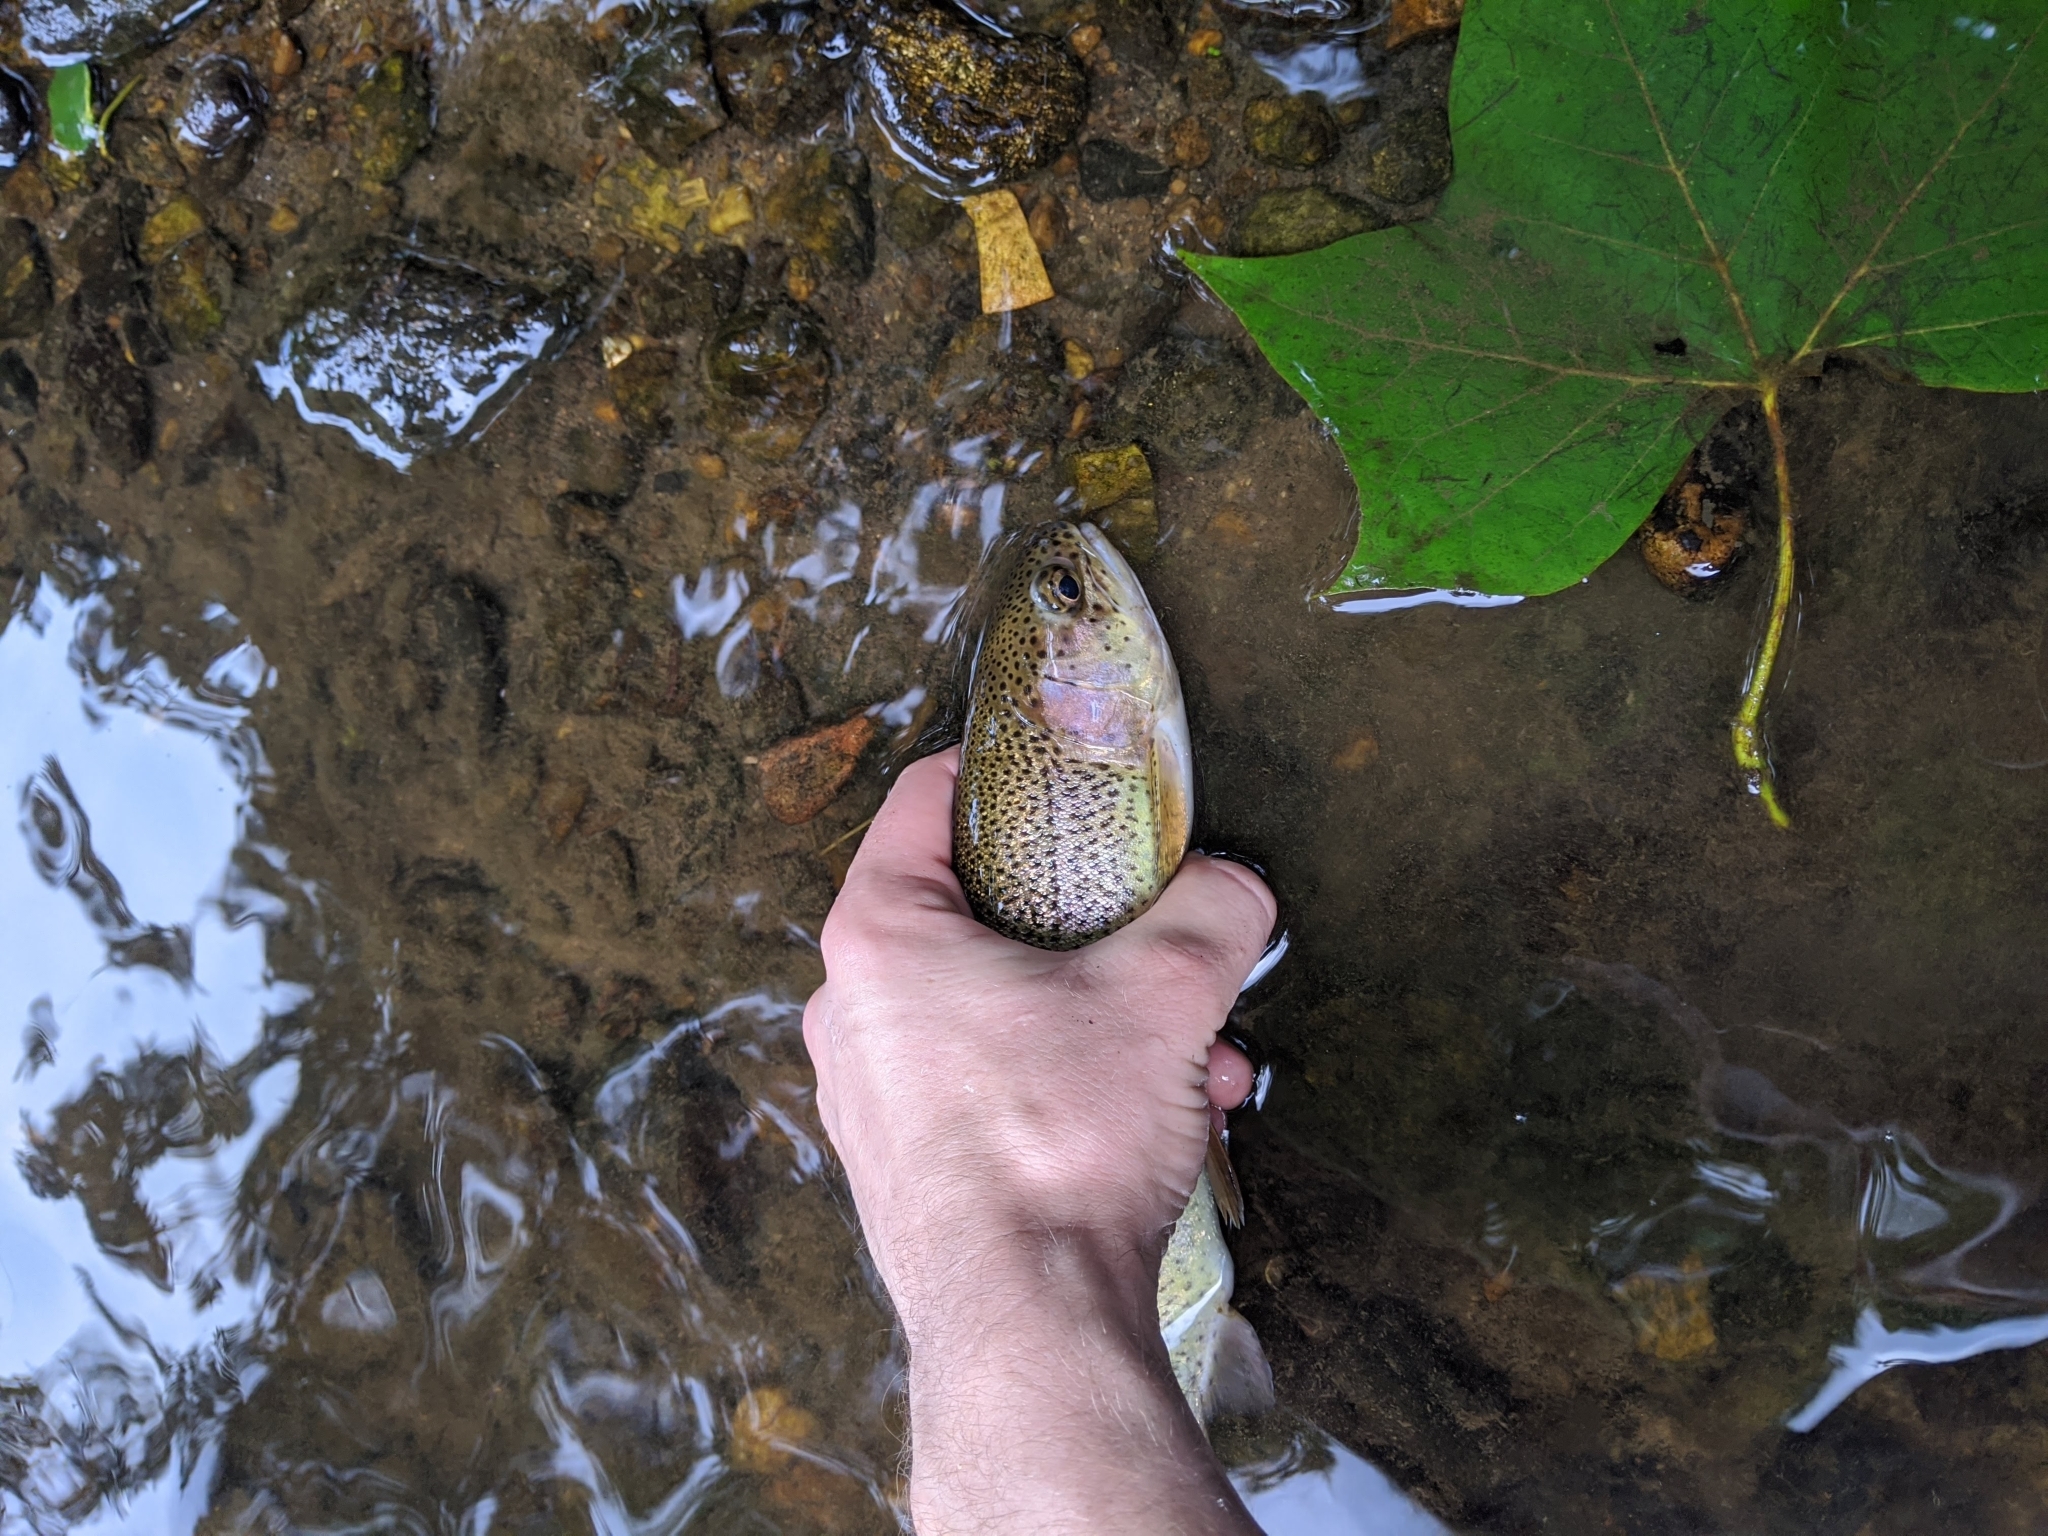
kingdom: Animalia
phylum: Chordata
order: Salmoniformes
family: Salmonidae
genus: Oncorhynchus
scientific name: Oncorhynchus mykiss
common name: Rainbow trout
